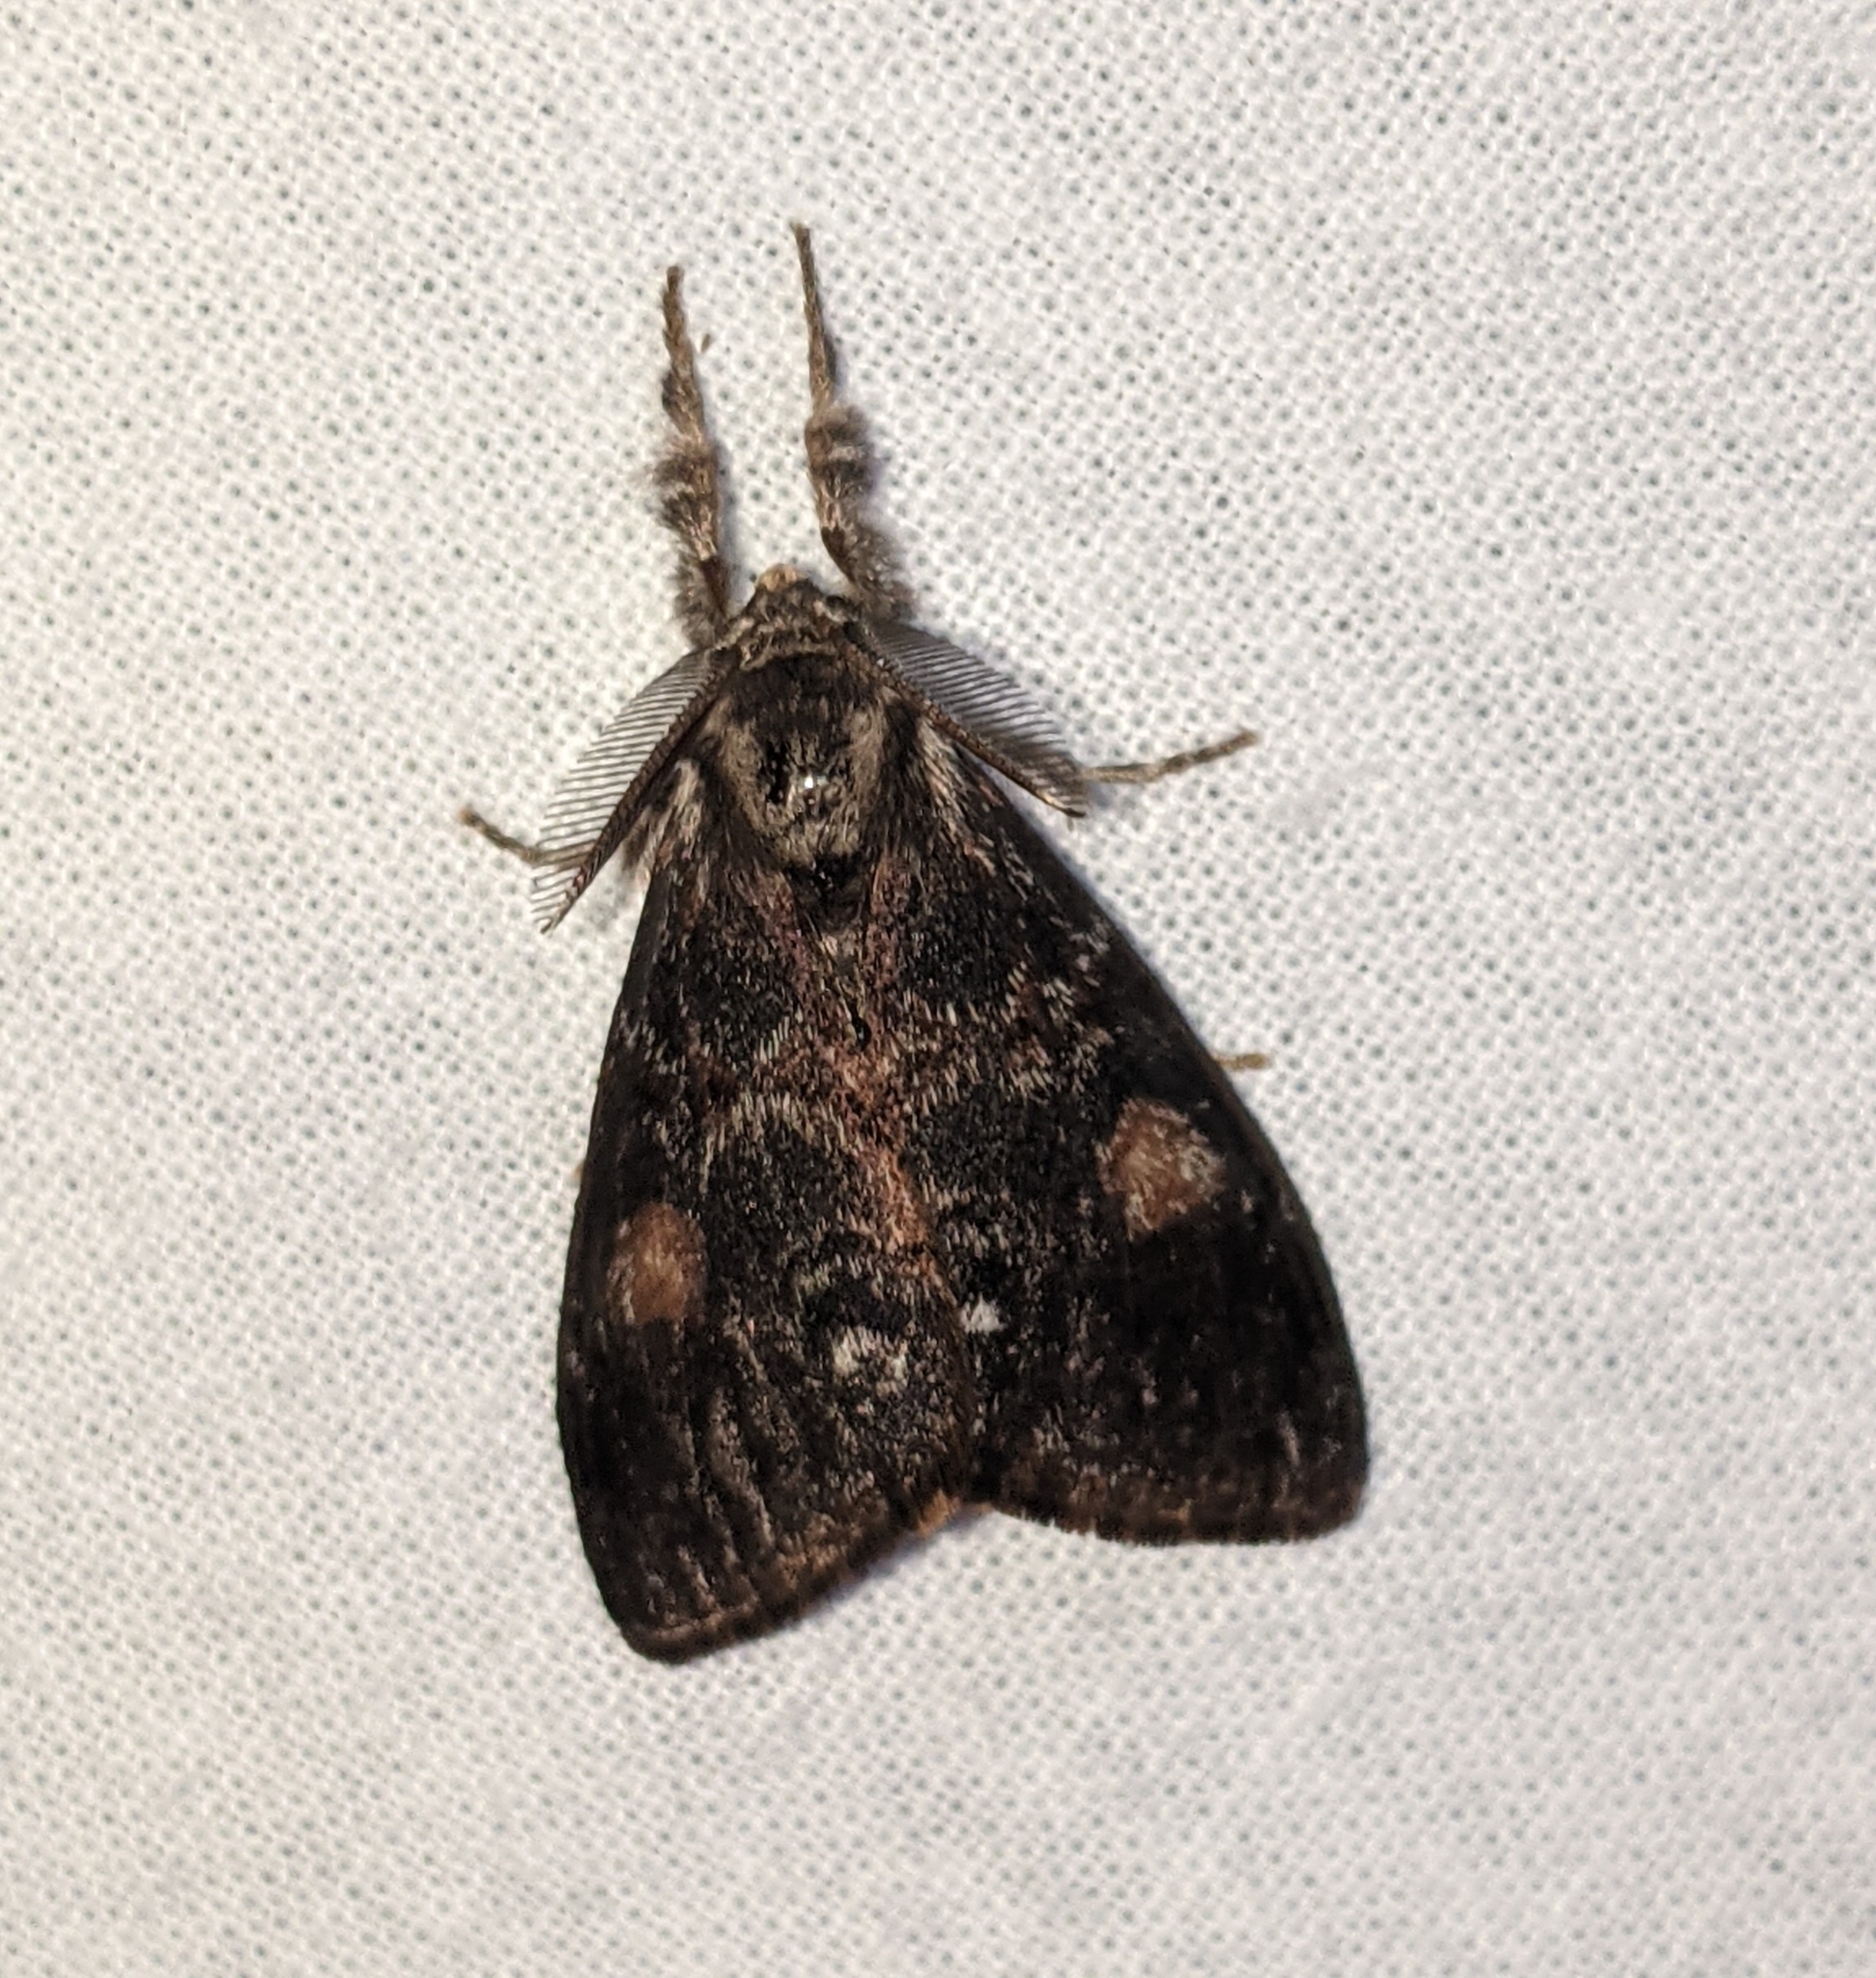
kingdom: Animalia
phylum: Arthropoda
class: Insecta
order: Lepidoptera
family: Erebidae
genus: Orgyia
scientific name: Orgyia pseudotsugata
